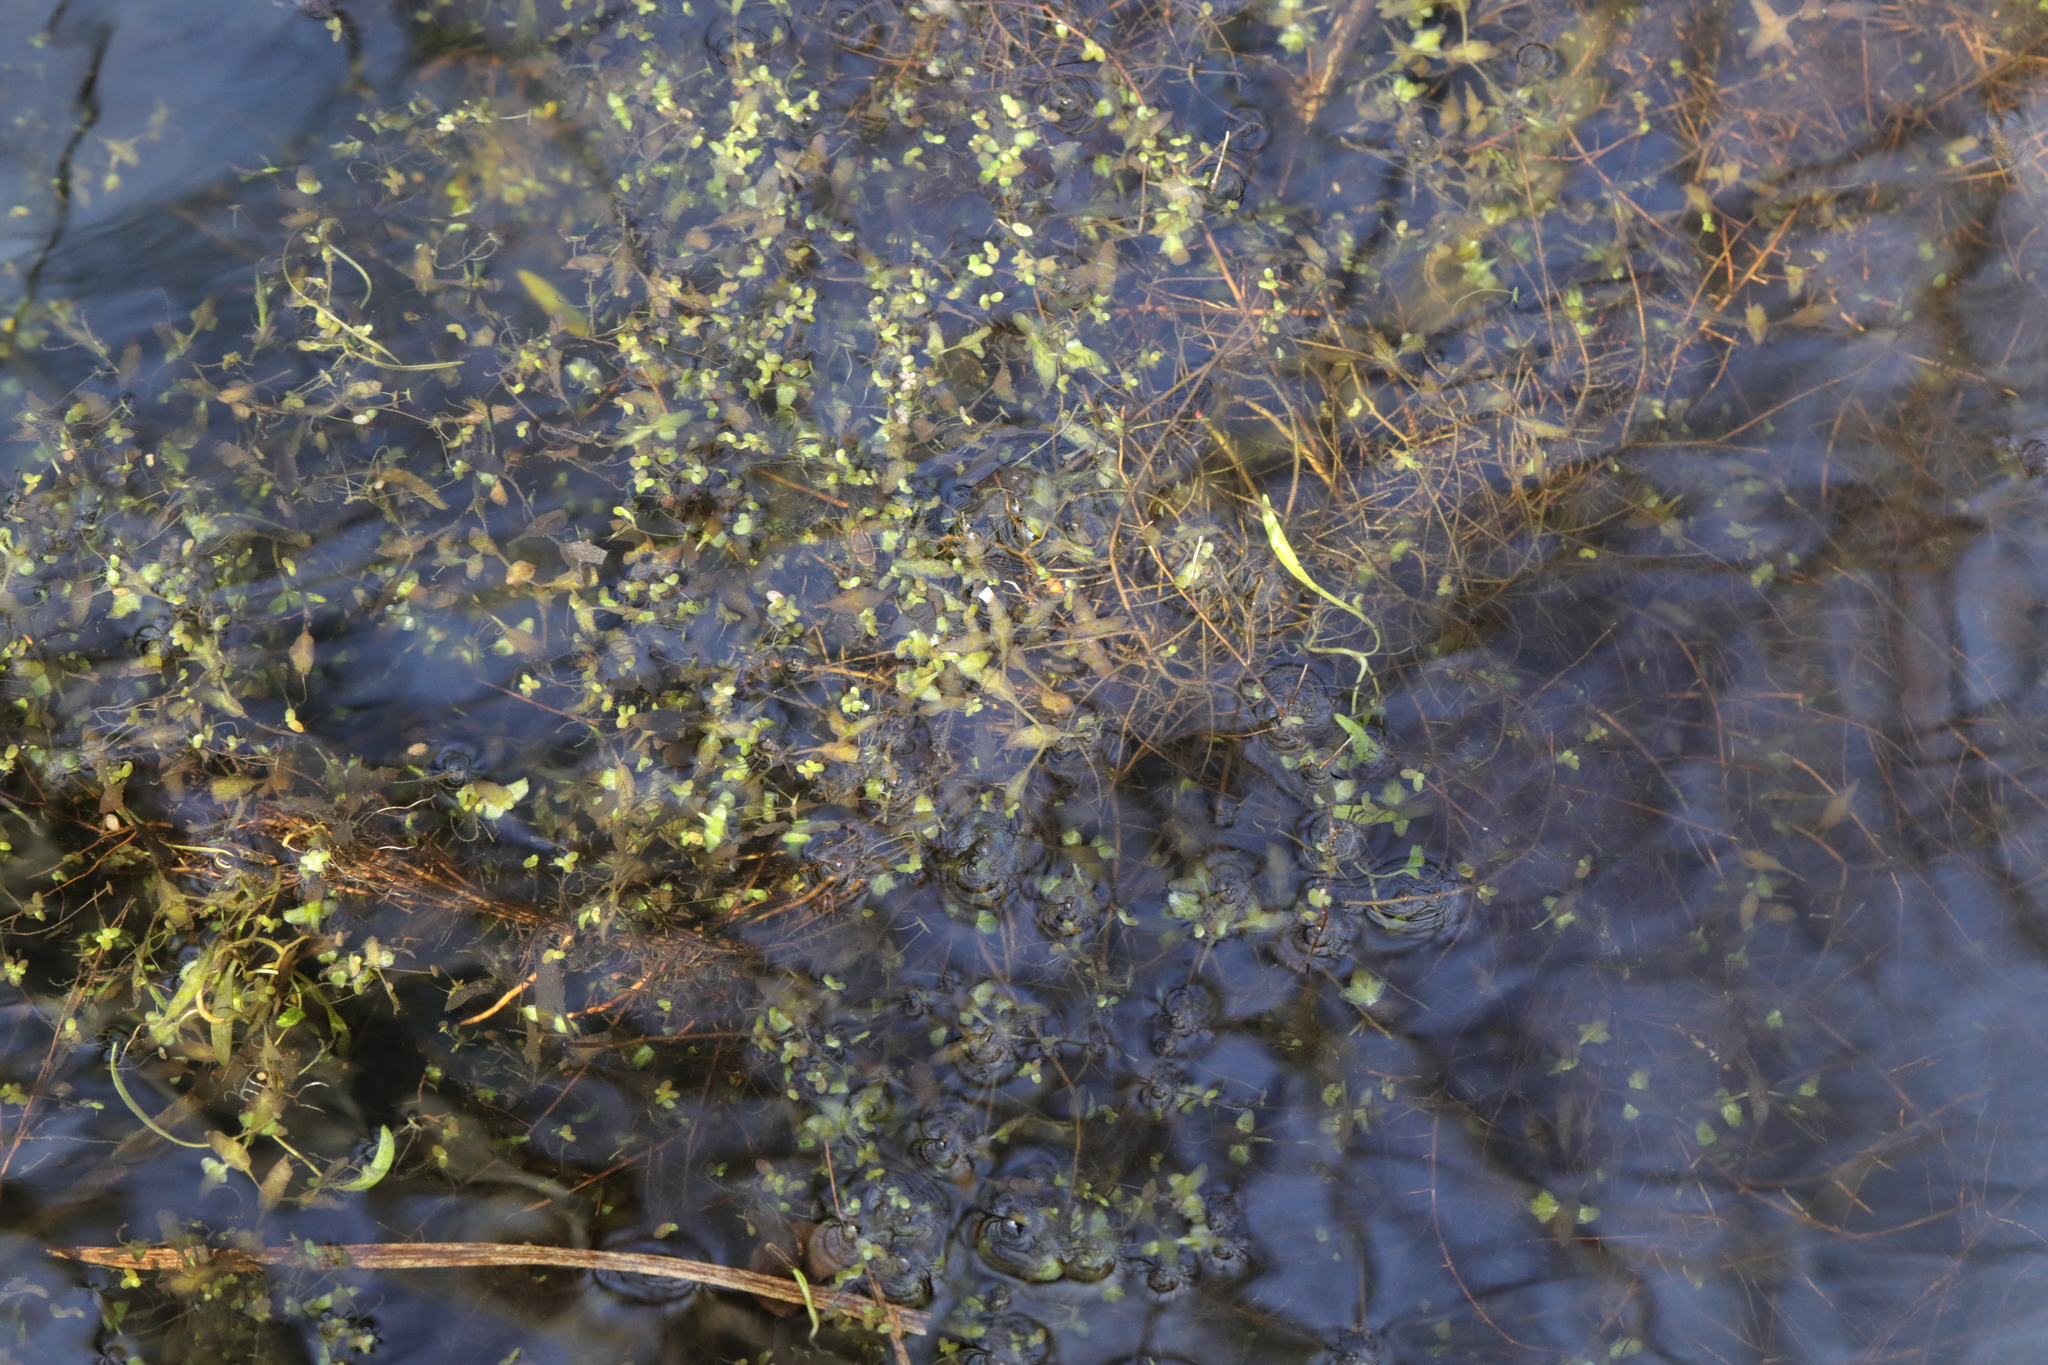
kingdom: Plantae
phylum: Tracheophyta
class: Liliopsida
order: Alismatales
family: Araceae
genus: Lemna
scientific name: Lemna minor
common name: Common duckweed
